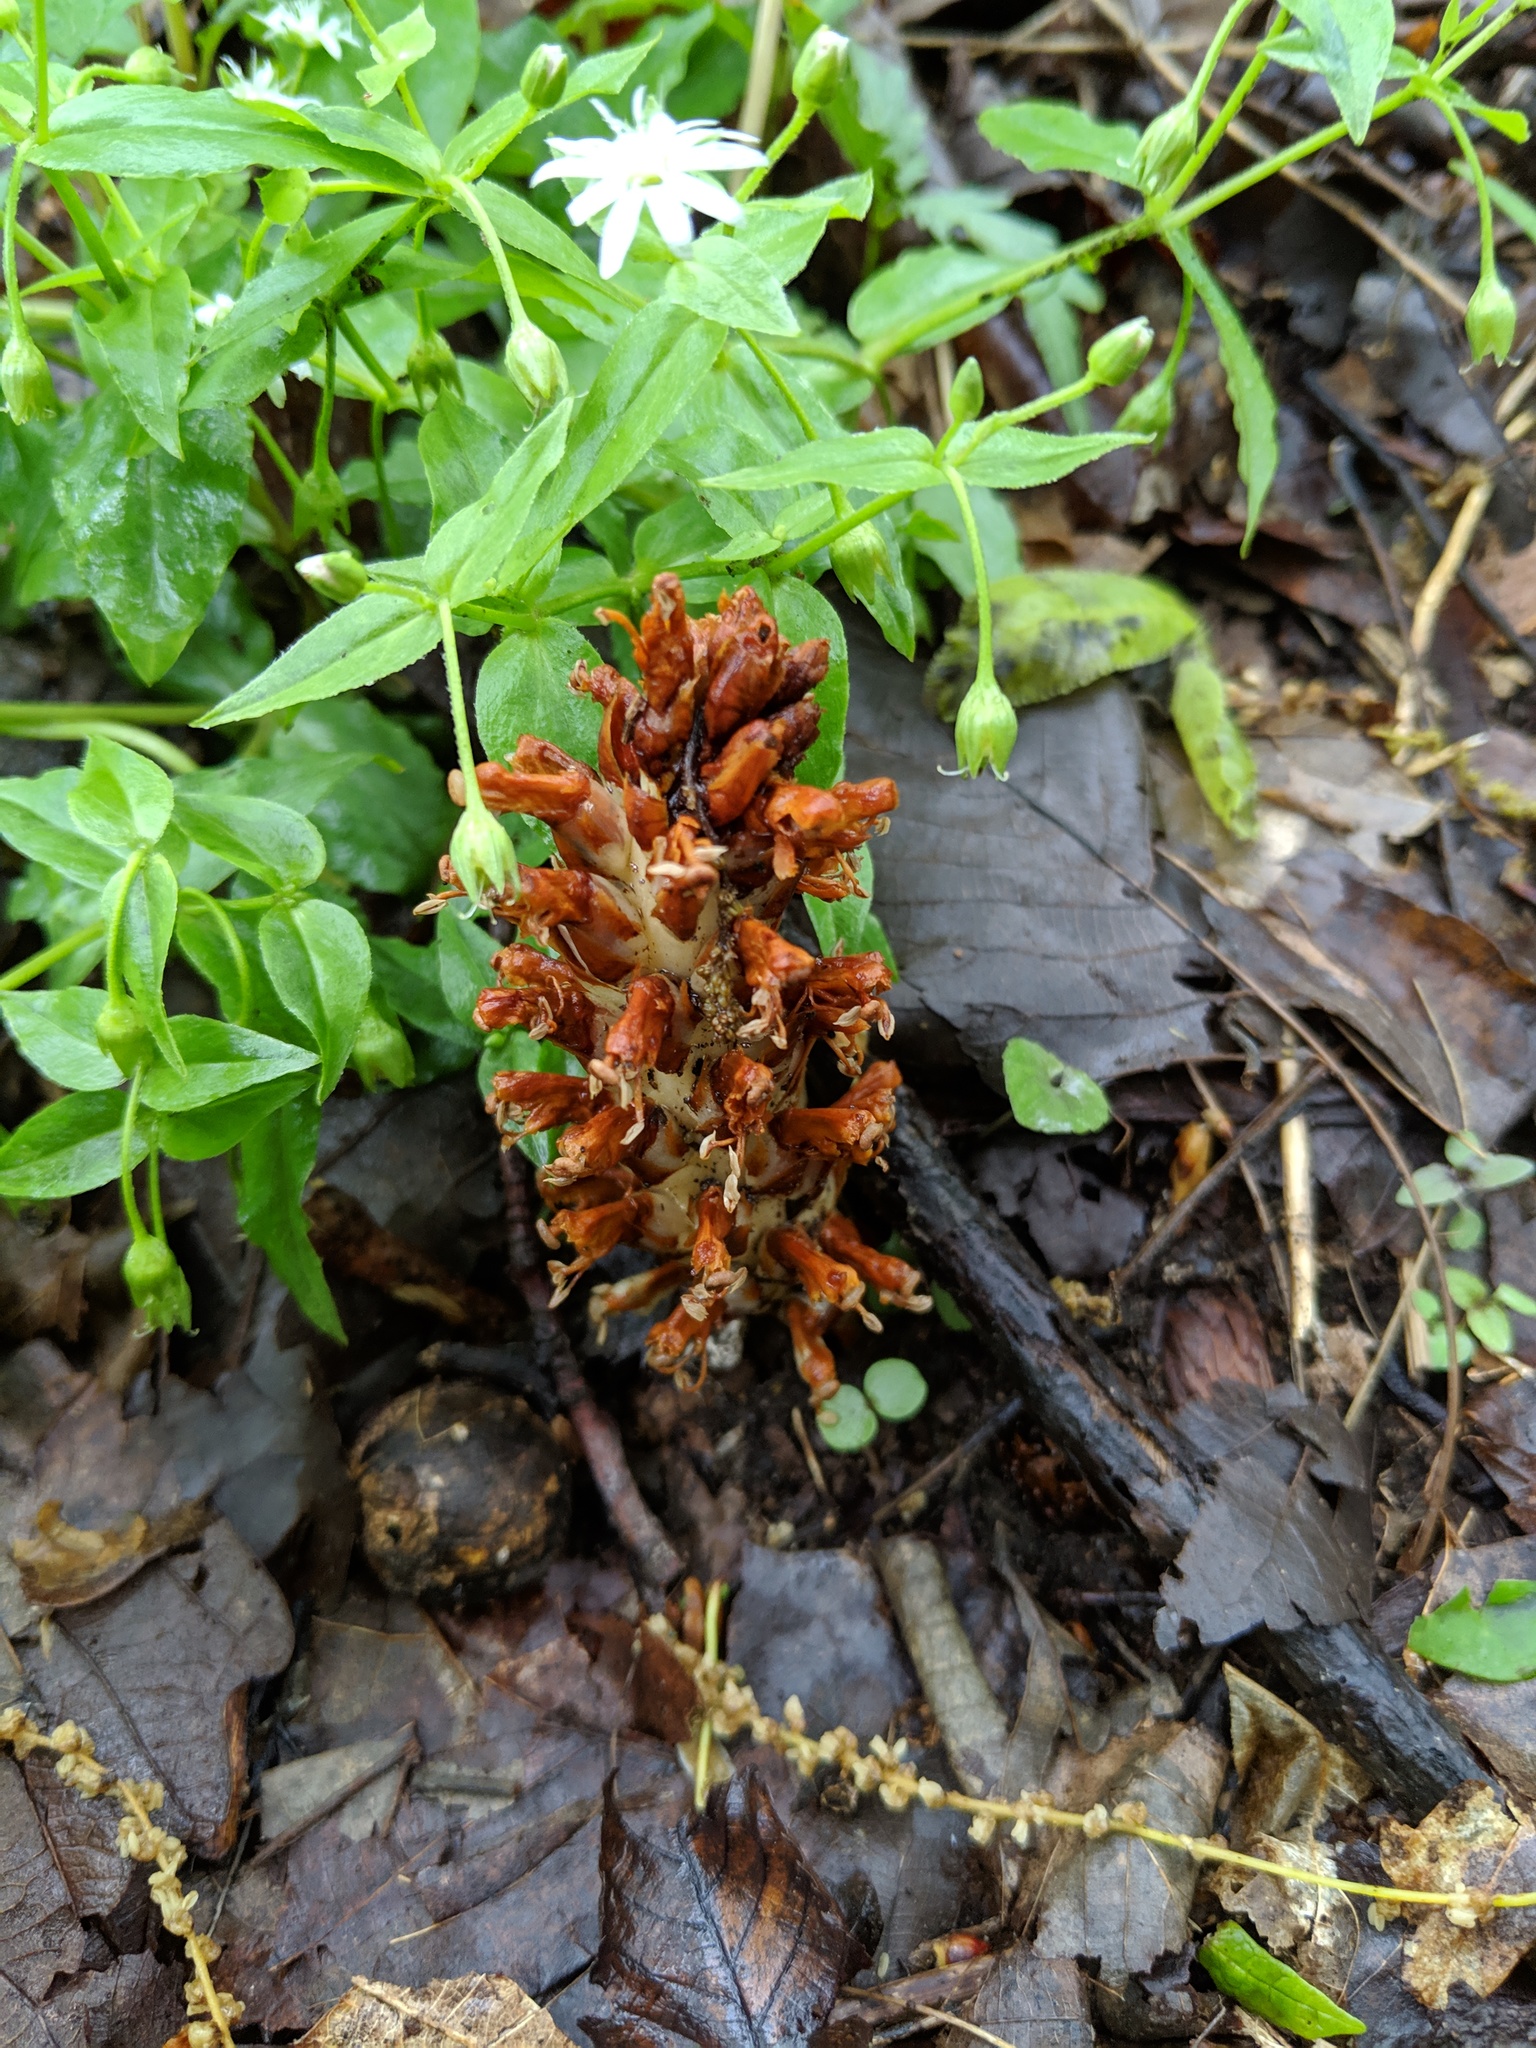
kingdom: Plantae
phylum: Tracheophyta
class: Magnoliopsida
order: Lamiales
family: Orobanchaceae
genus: Conopholis
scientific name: Conopholis americana
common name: American cancer-root
